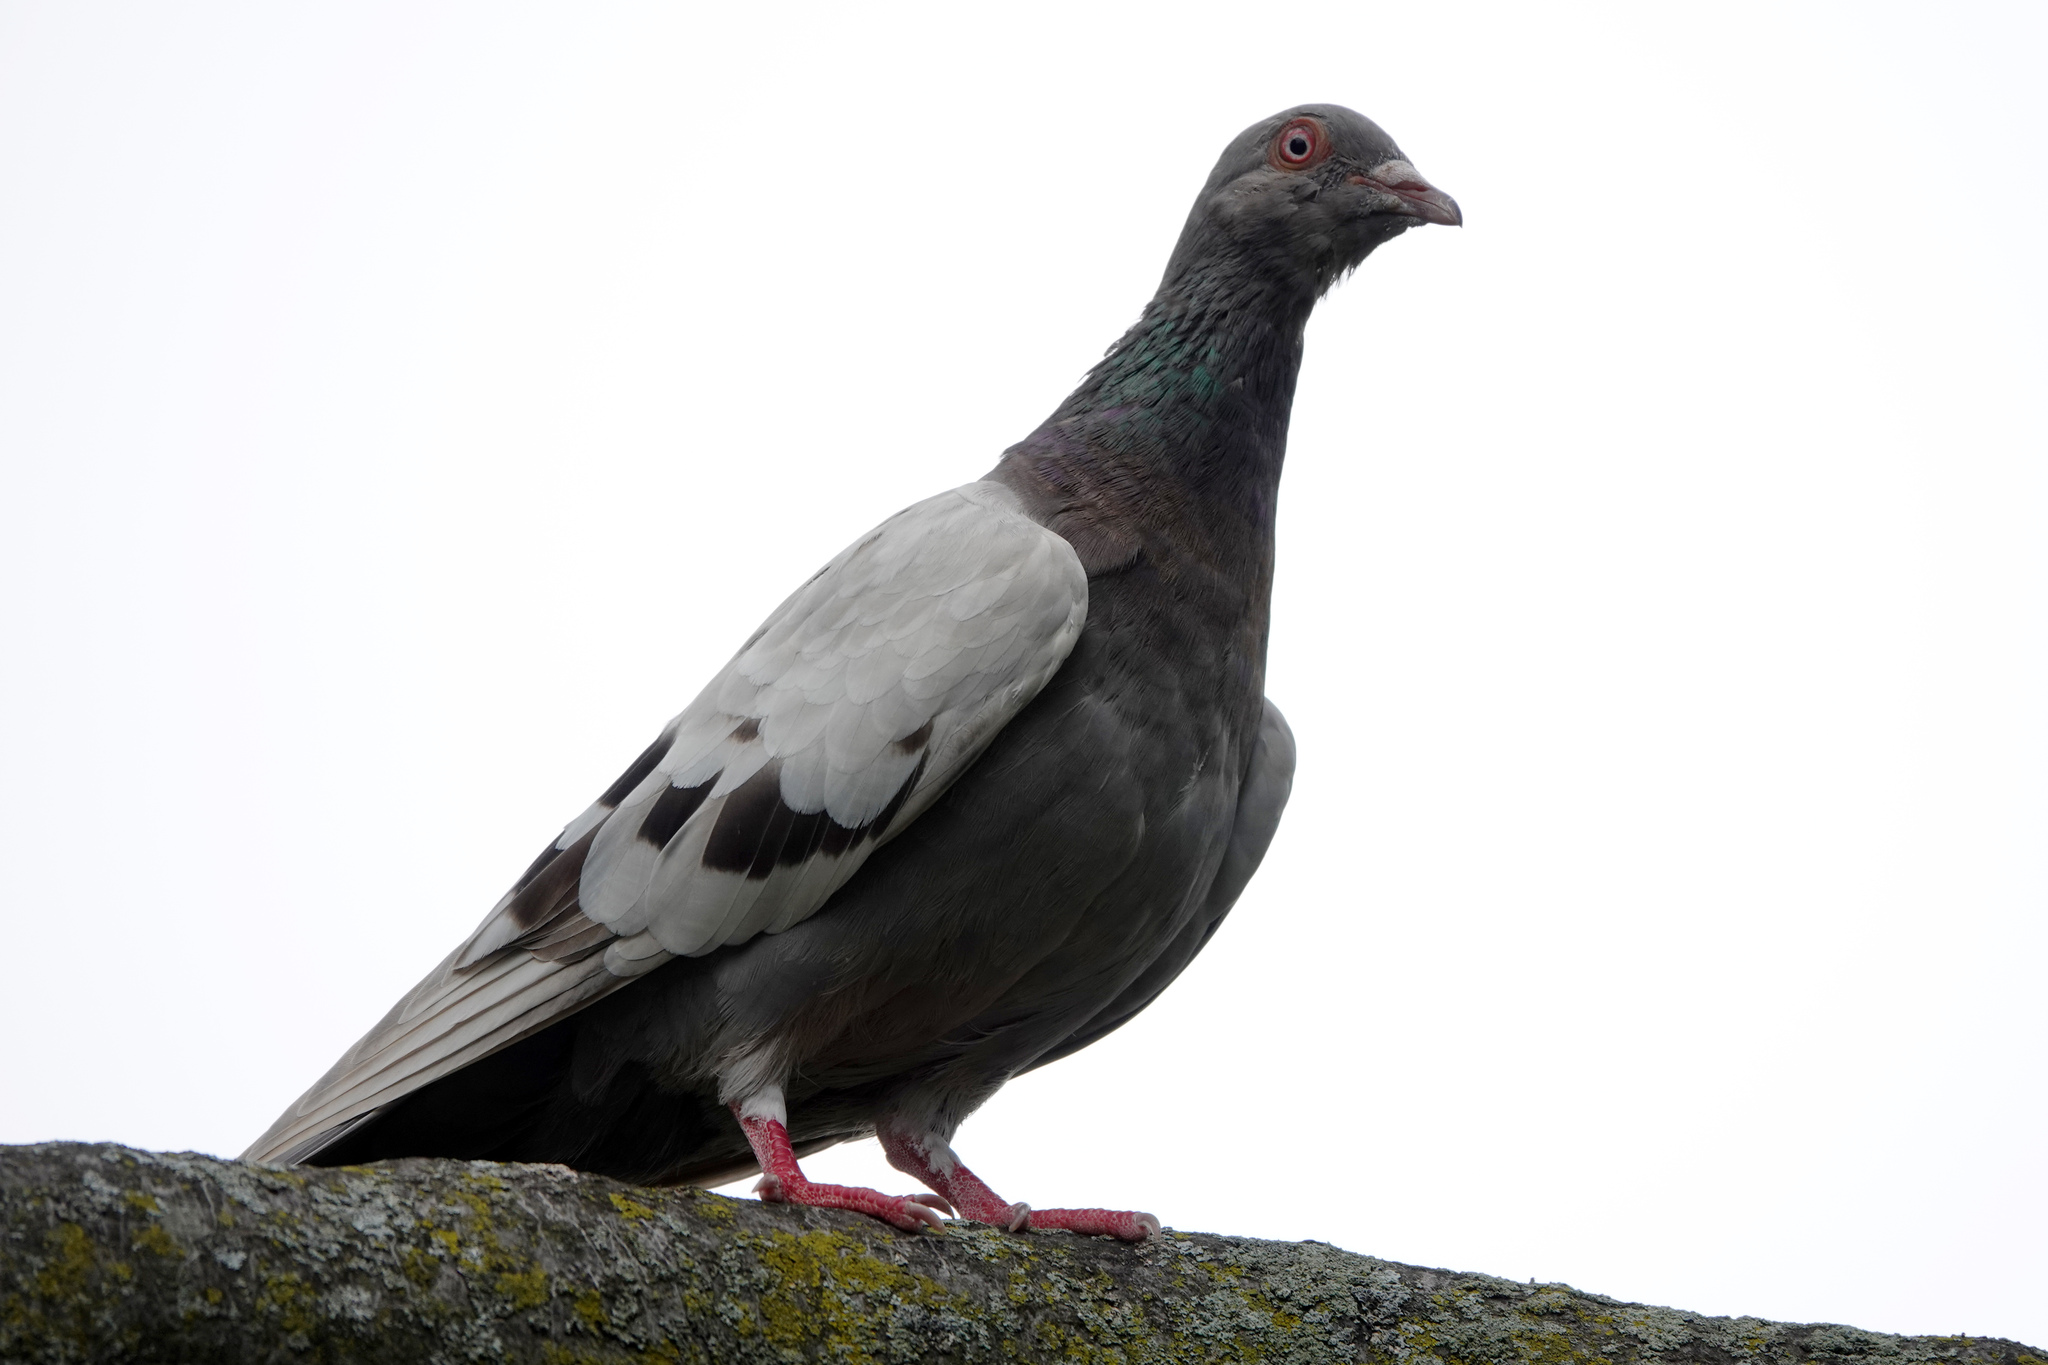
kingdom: Animalia
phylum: Chordata
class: Aves
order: Columbiformes
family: Columbidae
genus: Columba
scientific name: Columba livia
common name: Rock pigeon
